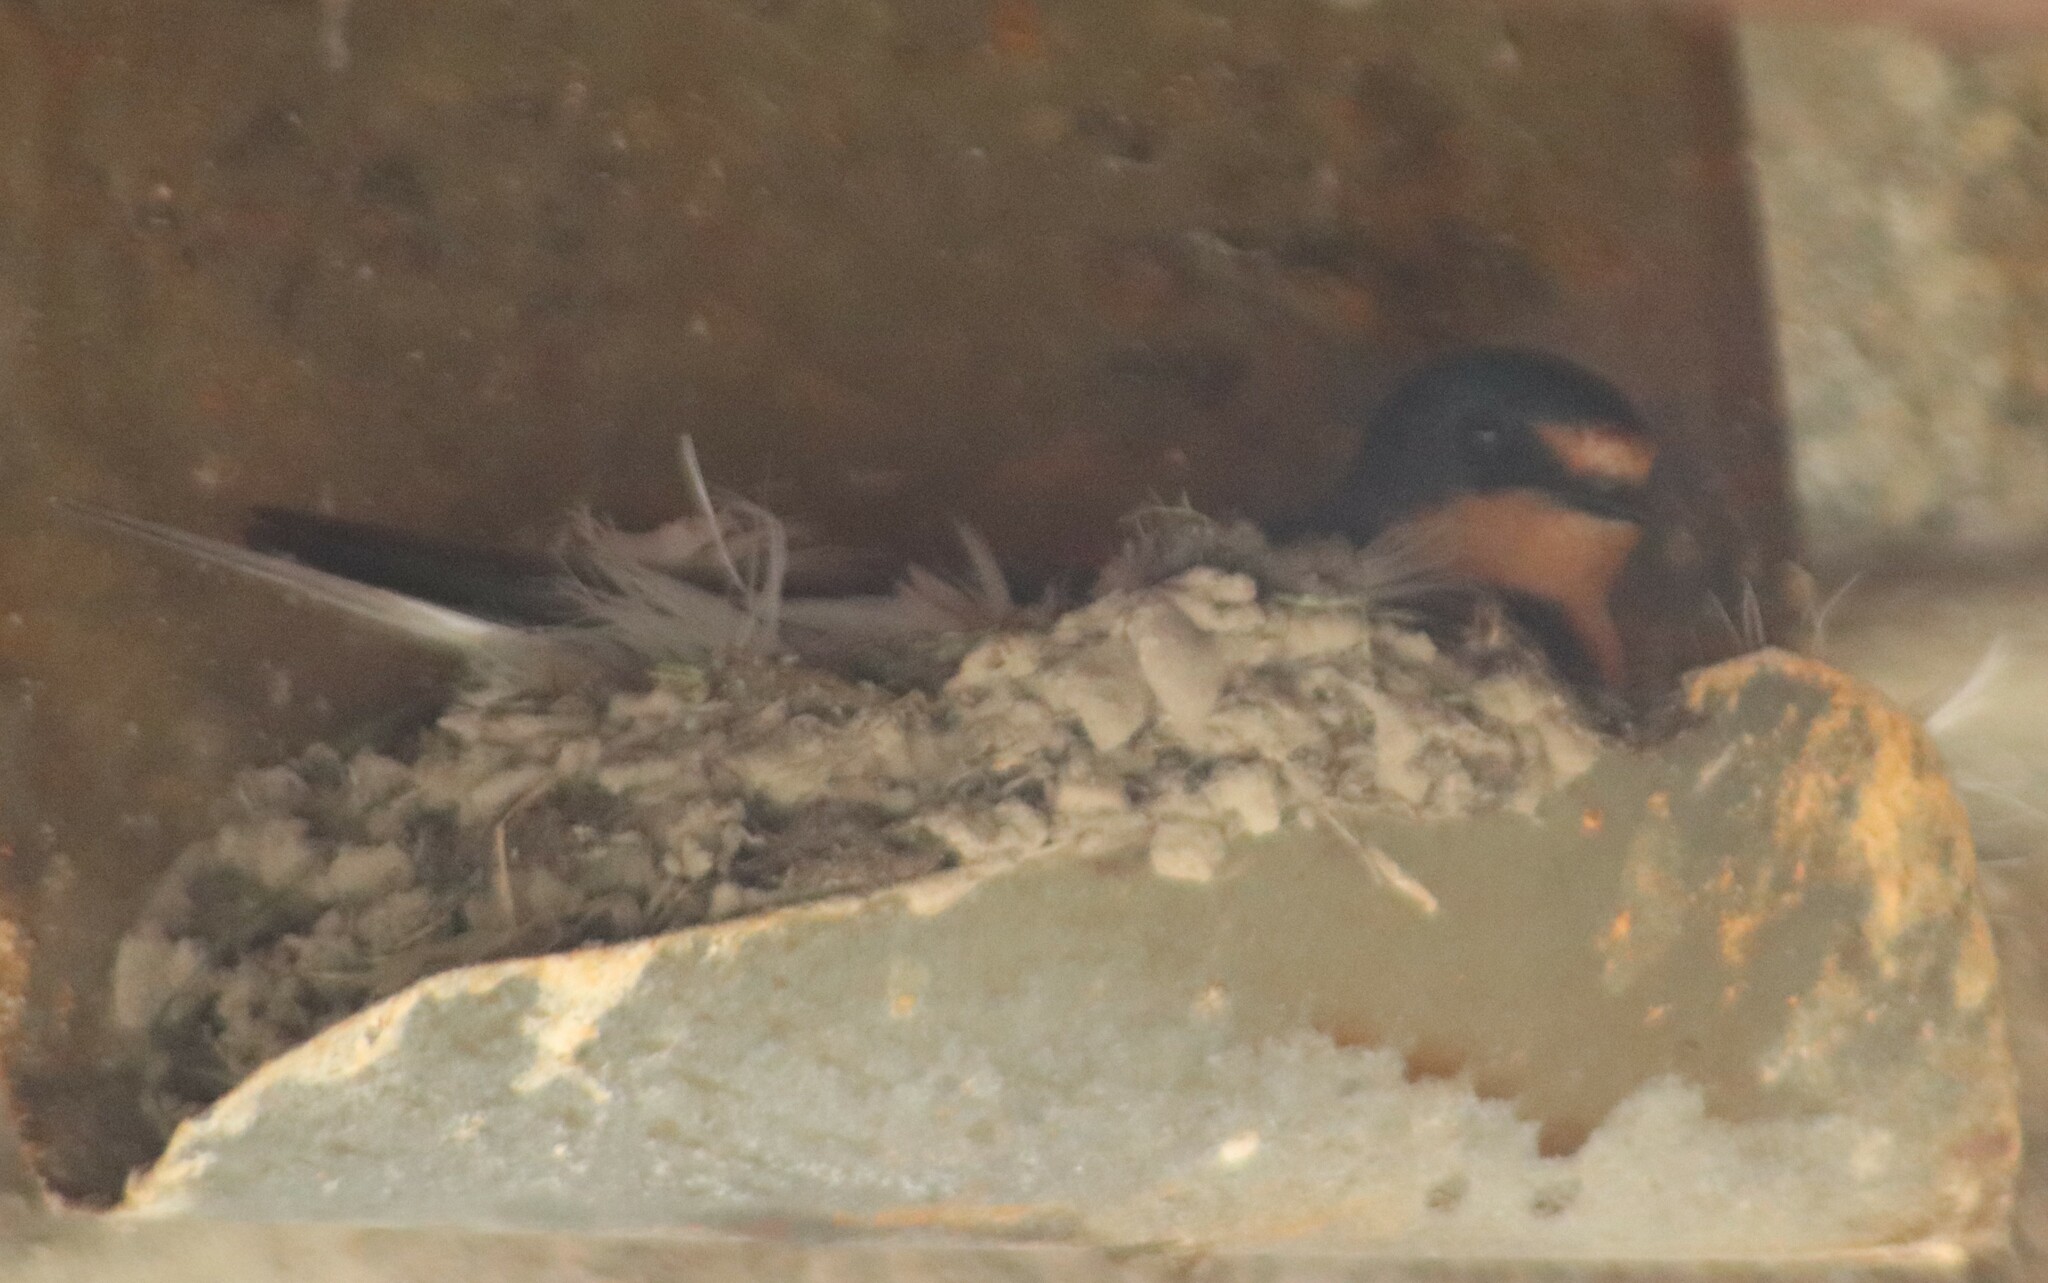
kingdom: Animalia
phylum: Chordata
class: Aves
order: Passeriformes
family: Hirundinidae
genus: Hirundo
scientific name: Hirundo rustica
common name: Barn swallow
